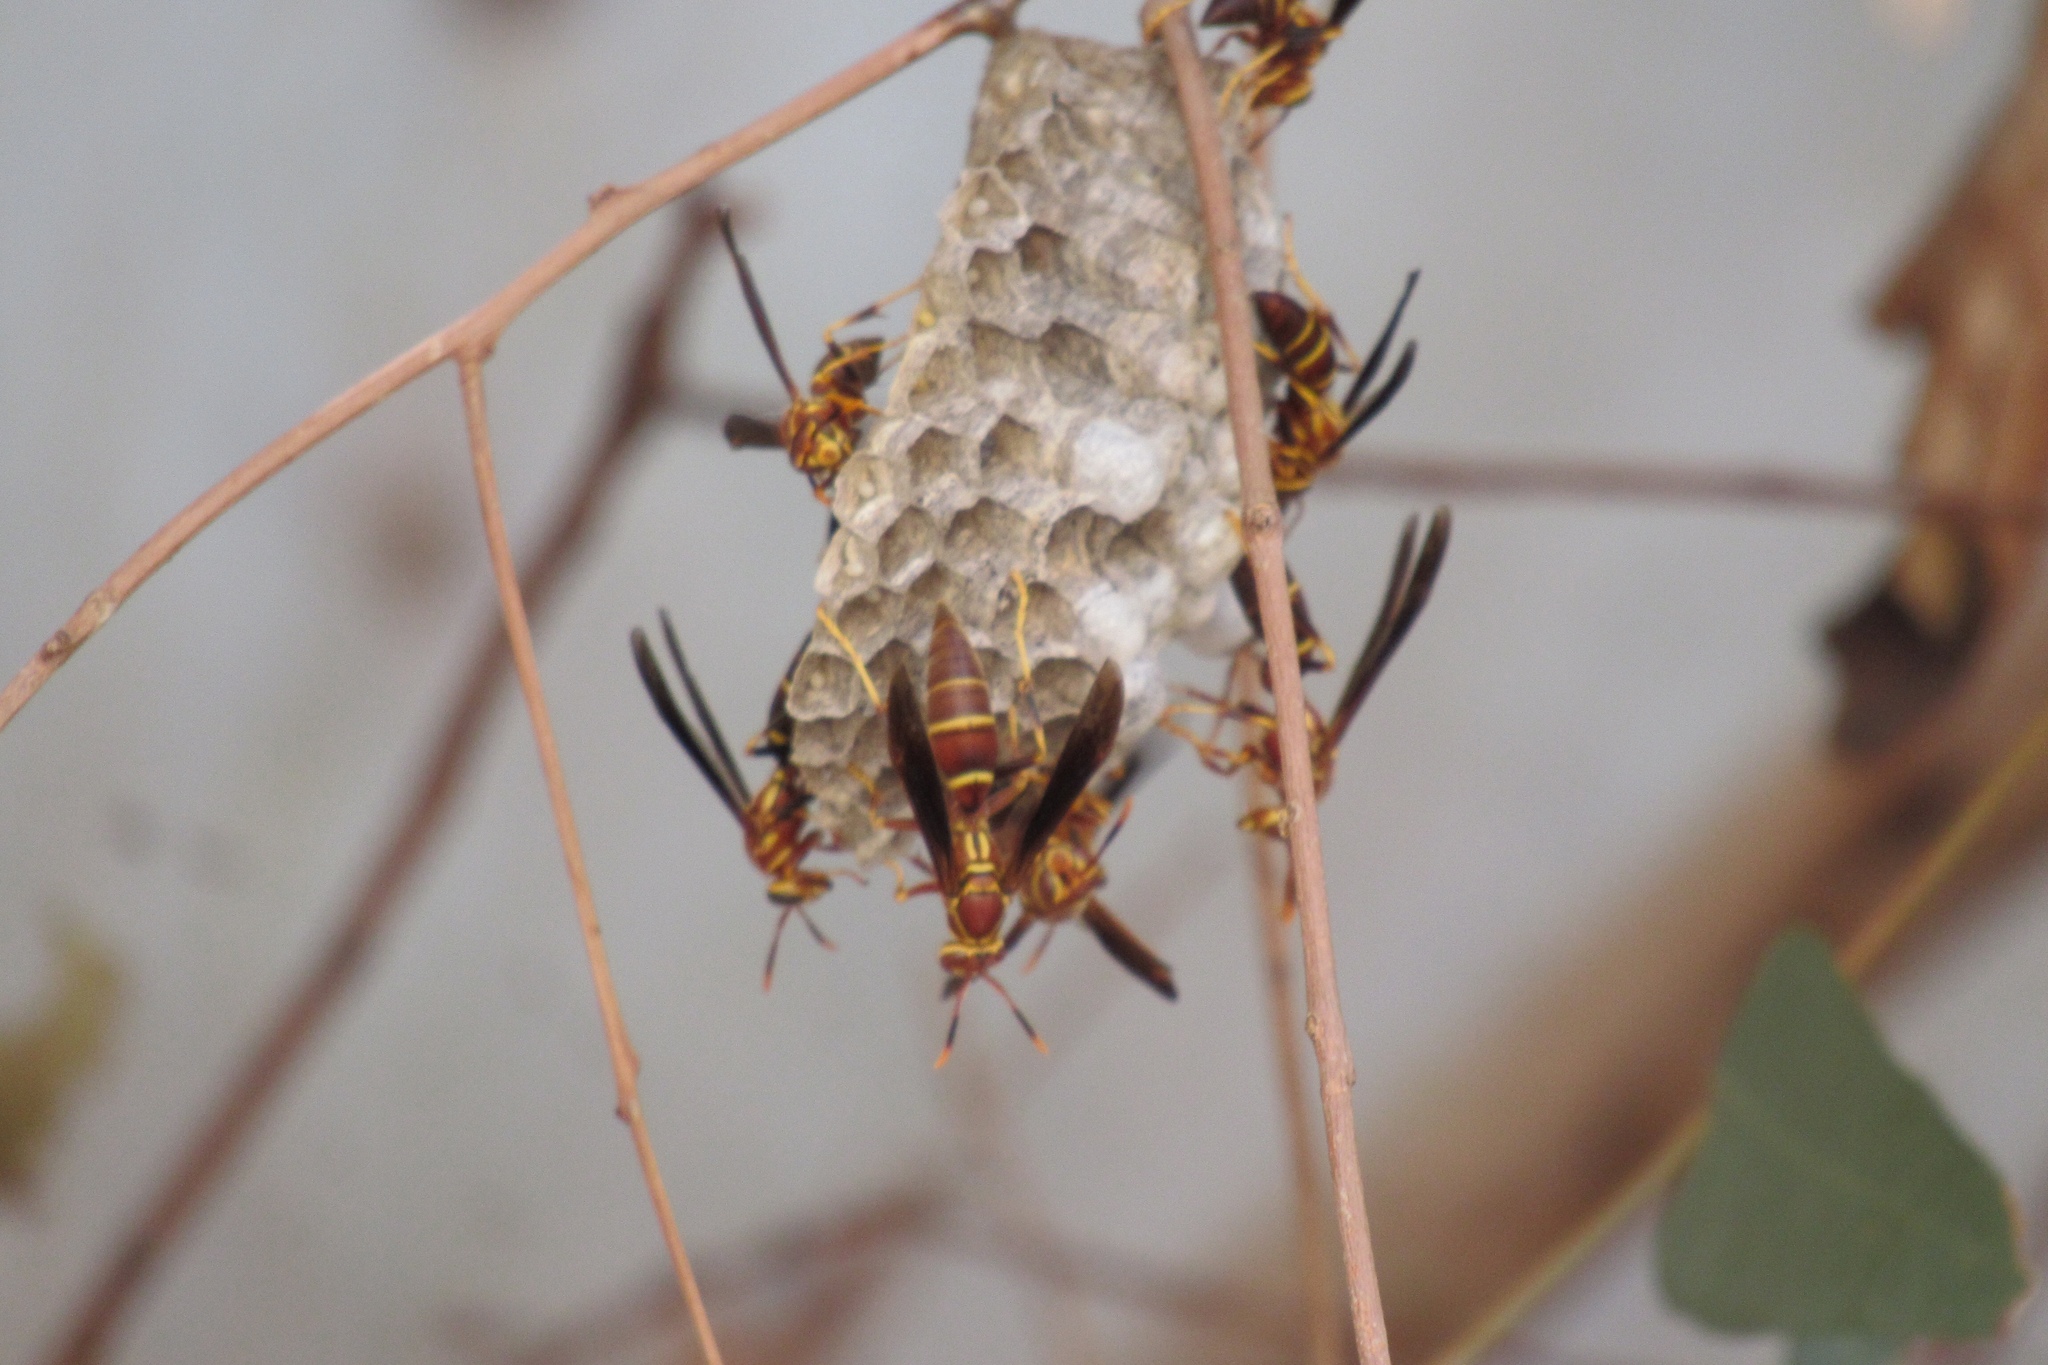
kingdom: Animalia
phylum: Arthropoda
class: Insecta
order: Hymenoptera
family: Eumenidae
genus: Polistes
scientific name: Polistes arizonensis
